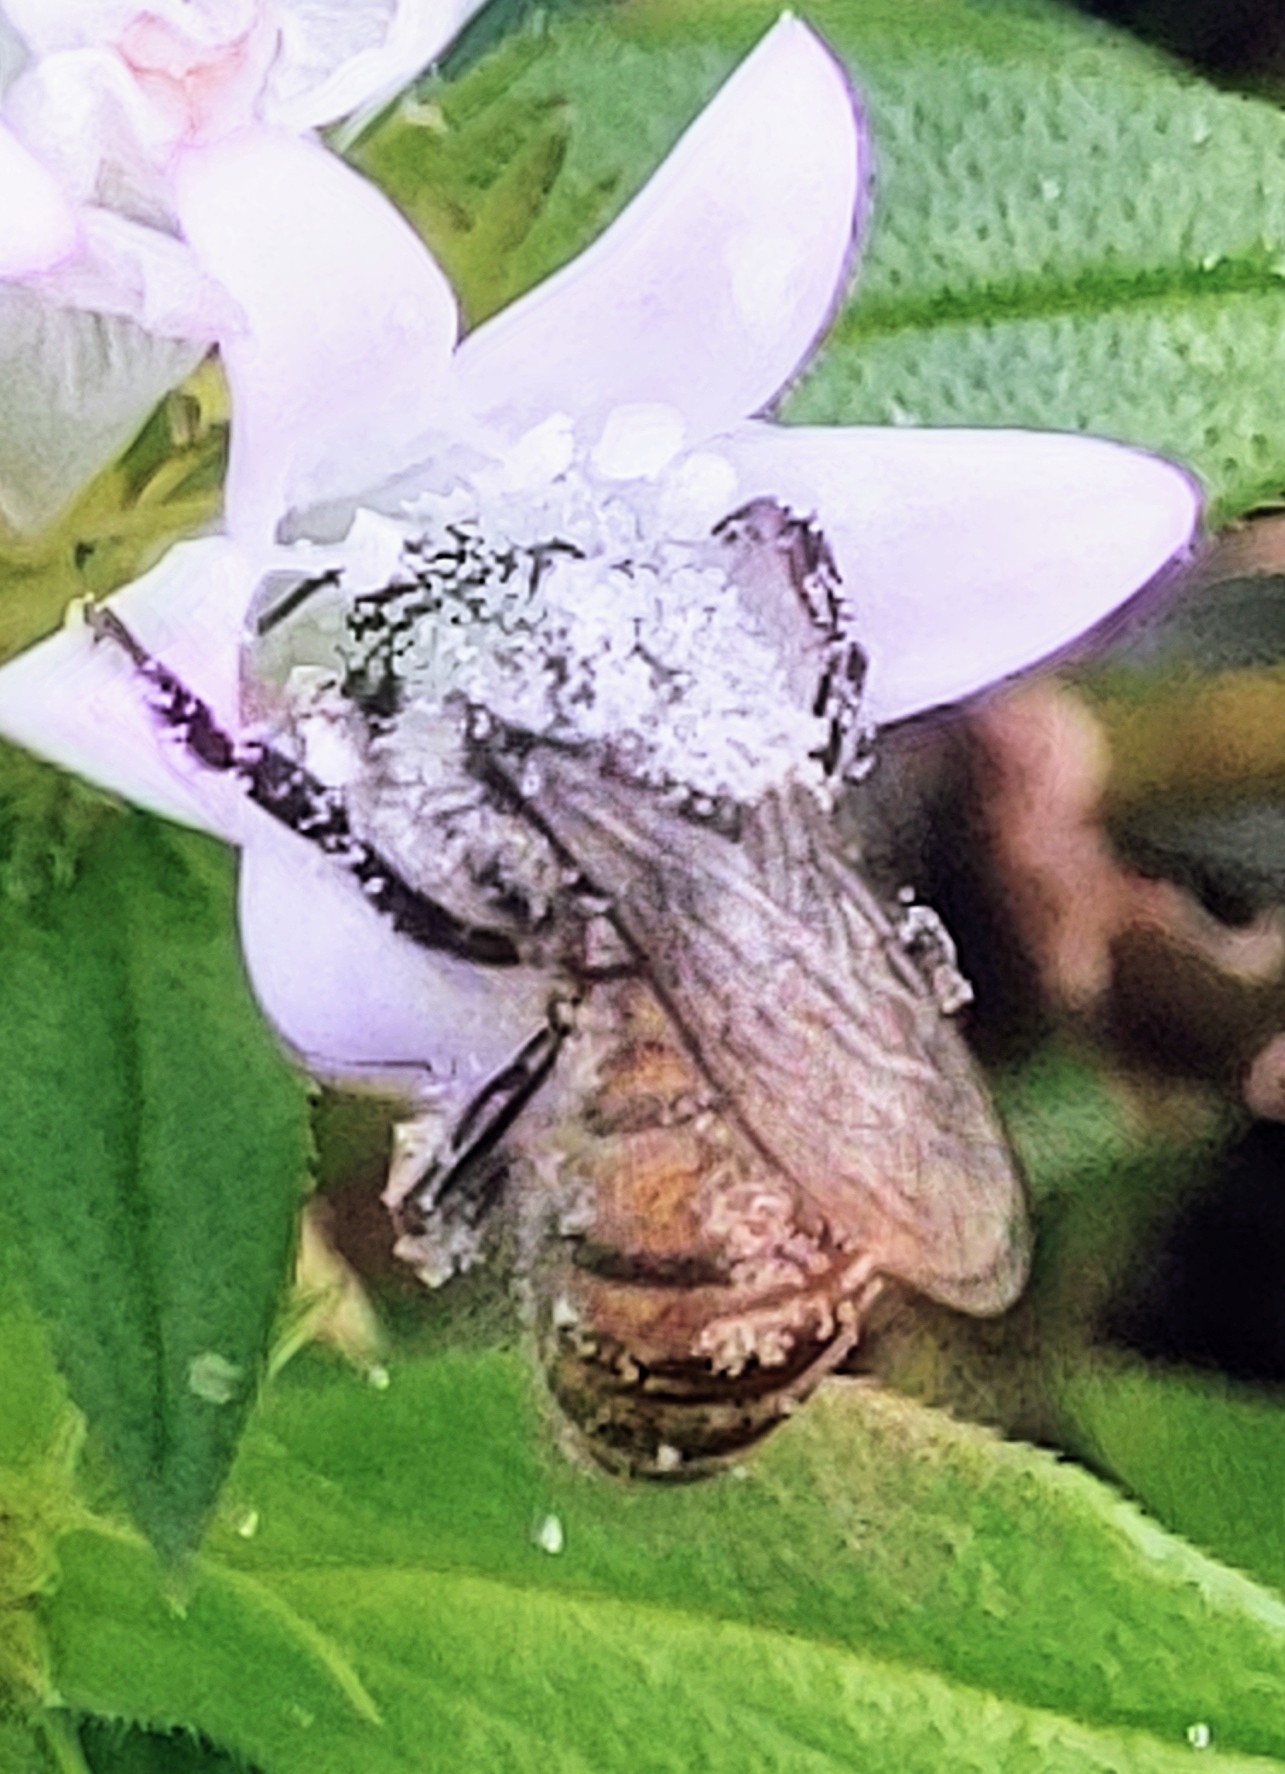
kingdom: Animalia
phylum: Arthropoda
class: Insecta
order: Hymenoptera
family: Apidae
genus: Apis
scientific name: Apis mellifera
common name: Honey bee
